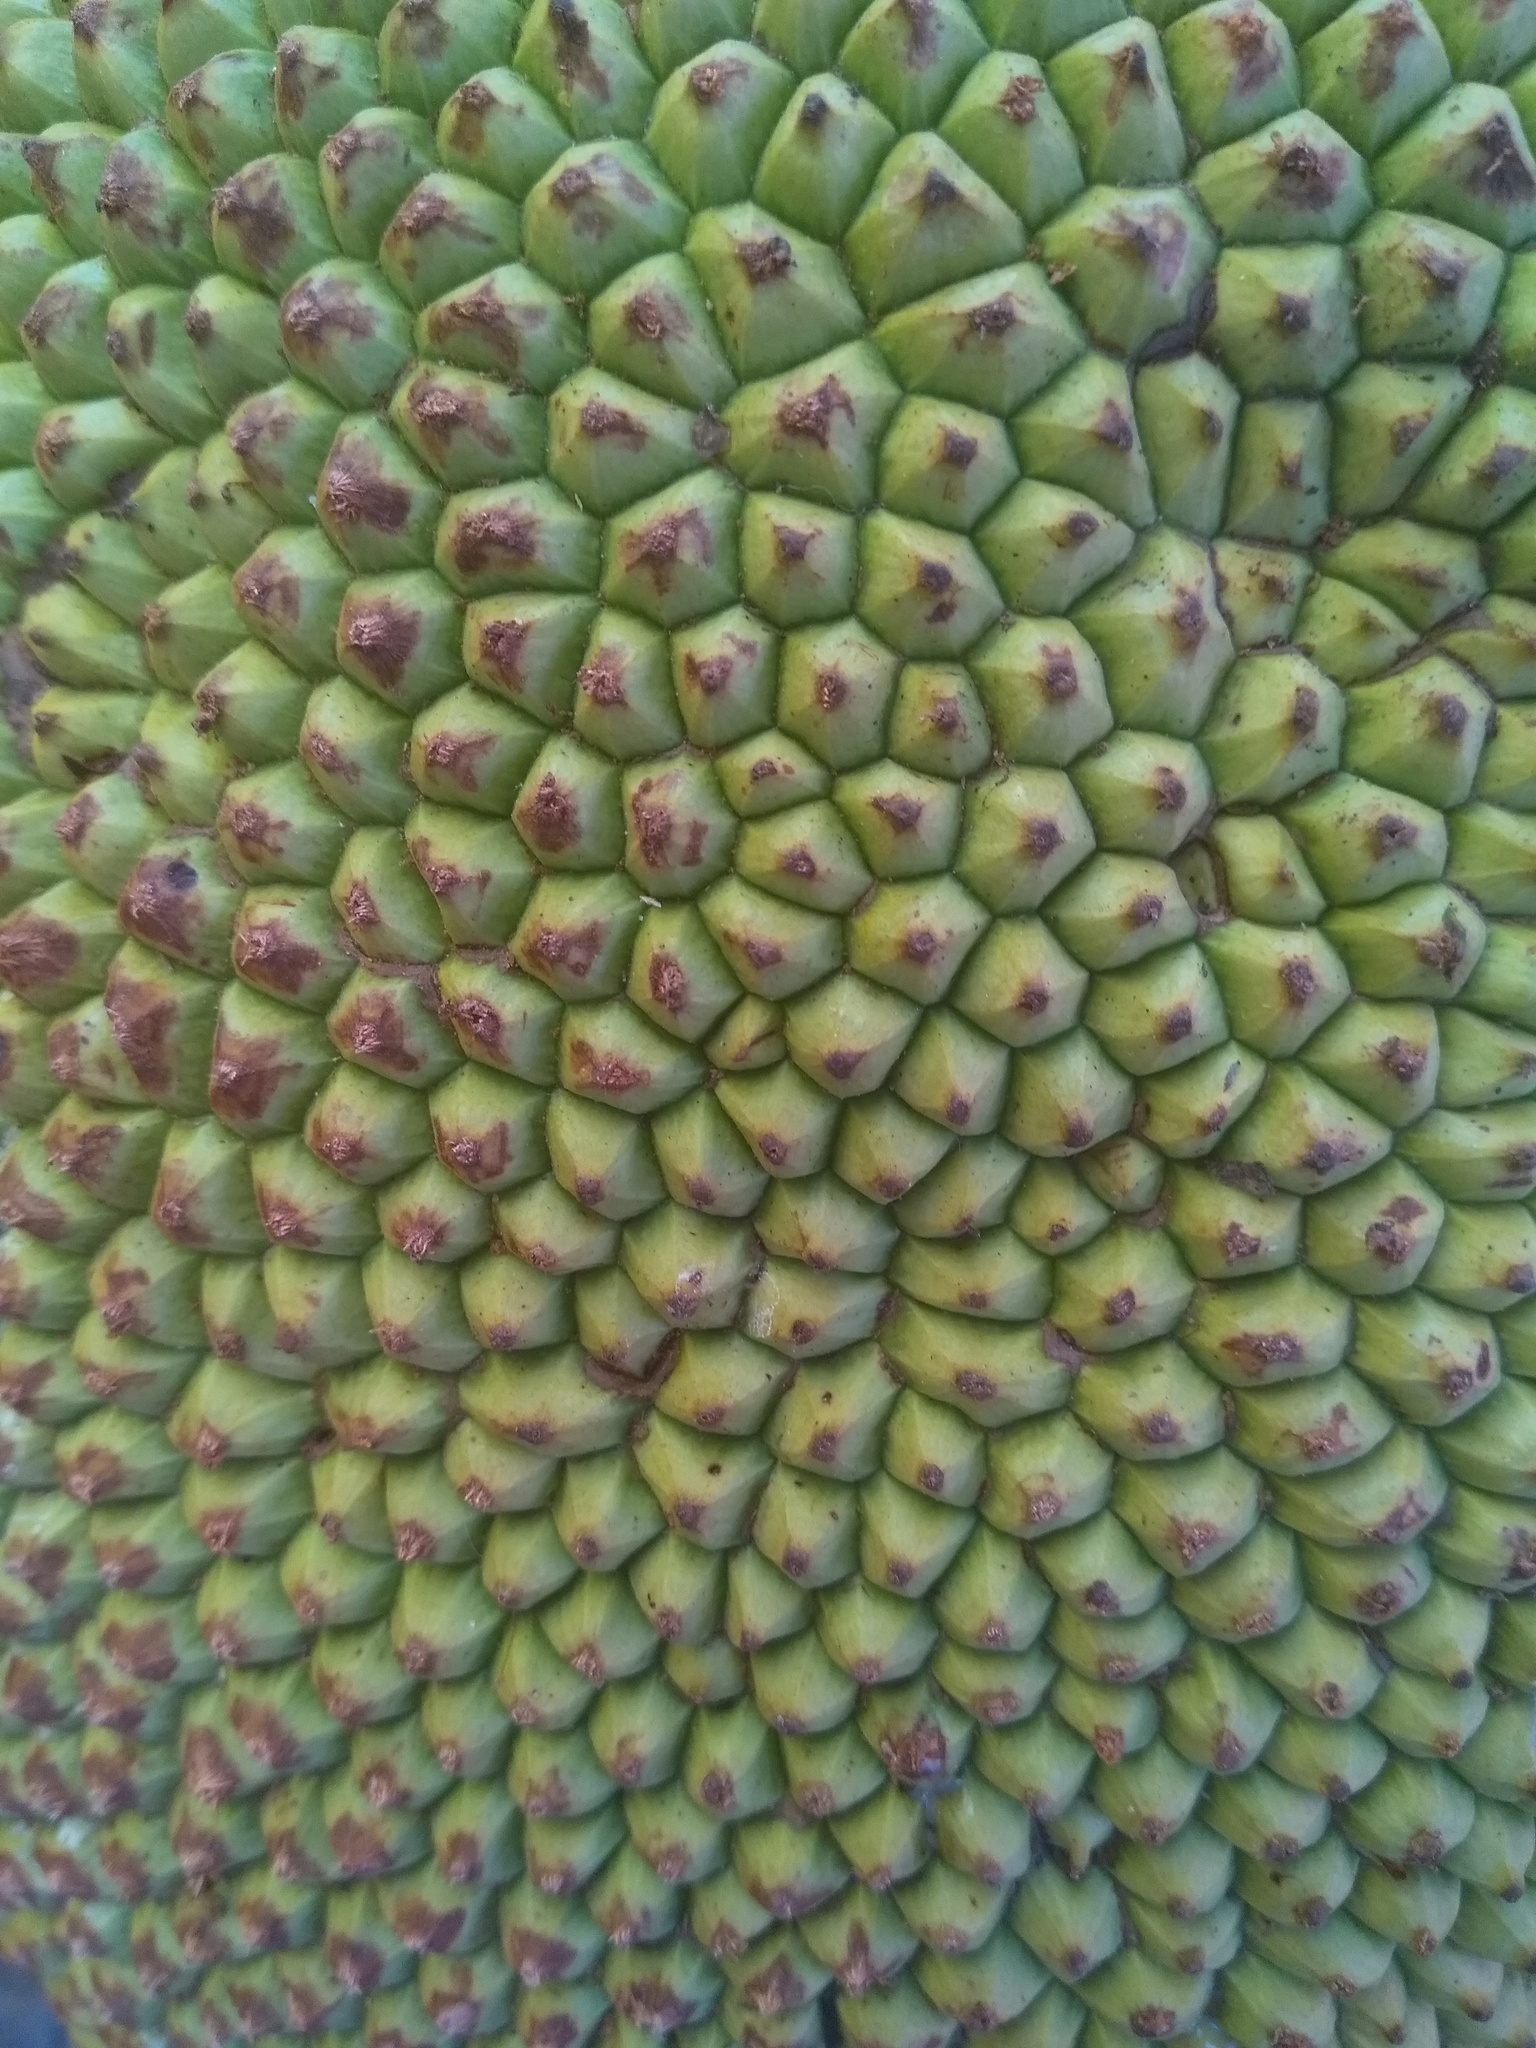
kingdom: Plantae
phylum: Tracheophyta
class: Magnoliopsida
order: Rosales
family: Moraceae
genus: Artocarpus
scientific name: Artocarpus heterophyllus
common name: Jackfruit
